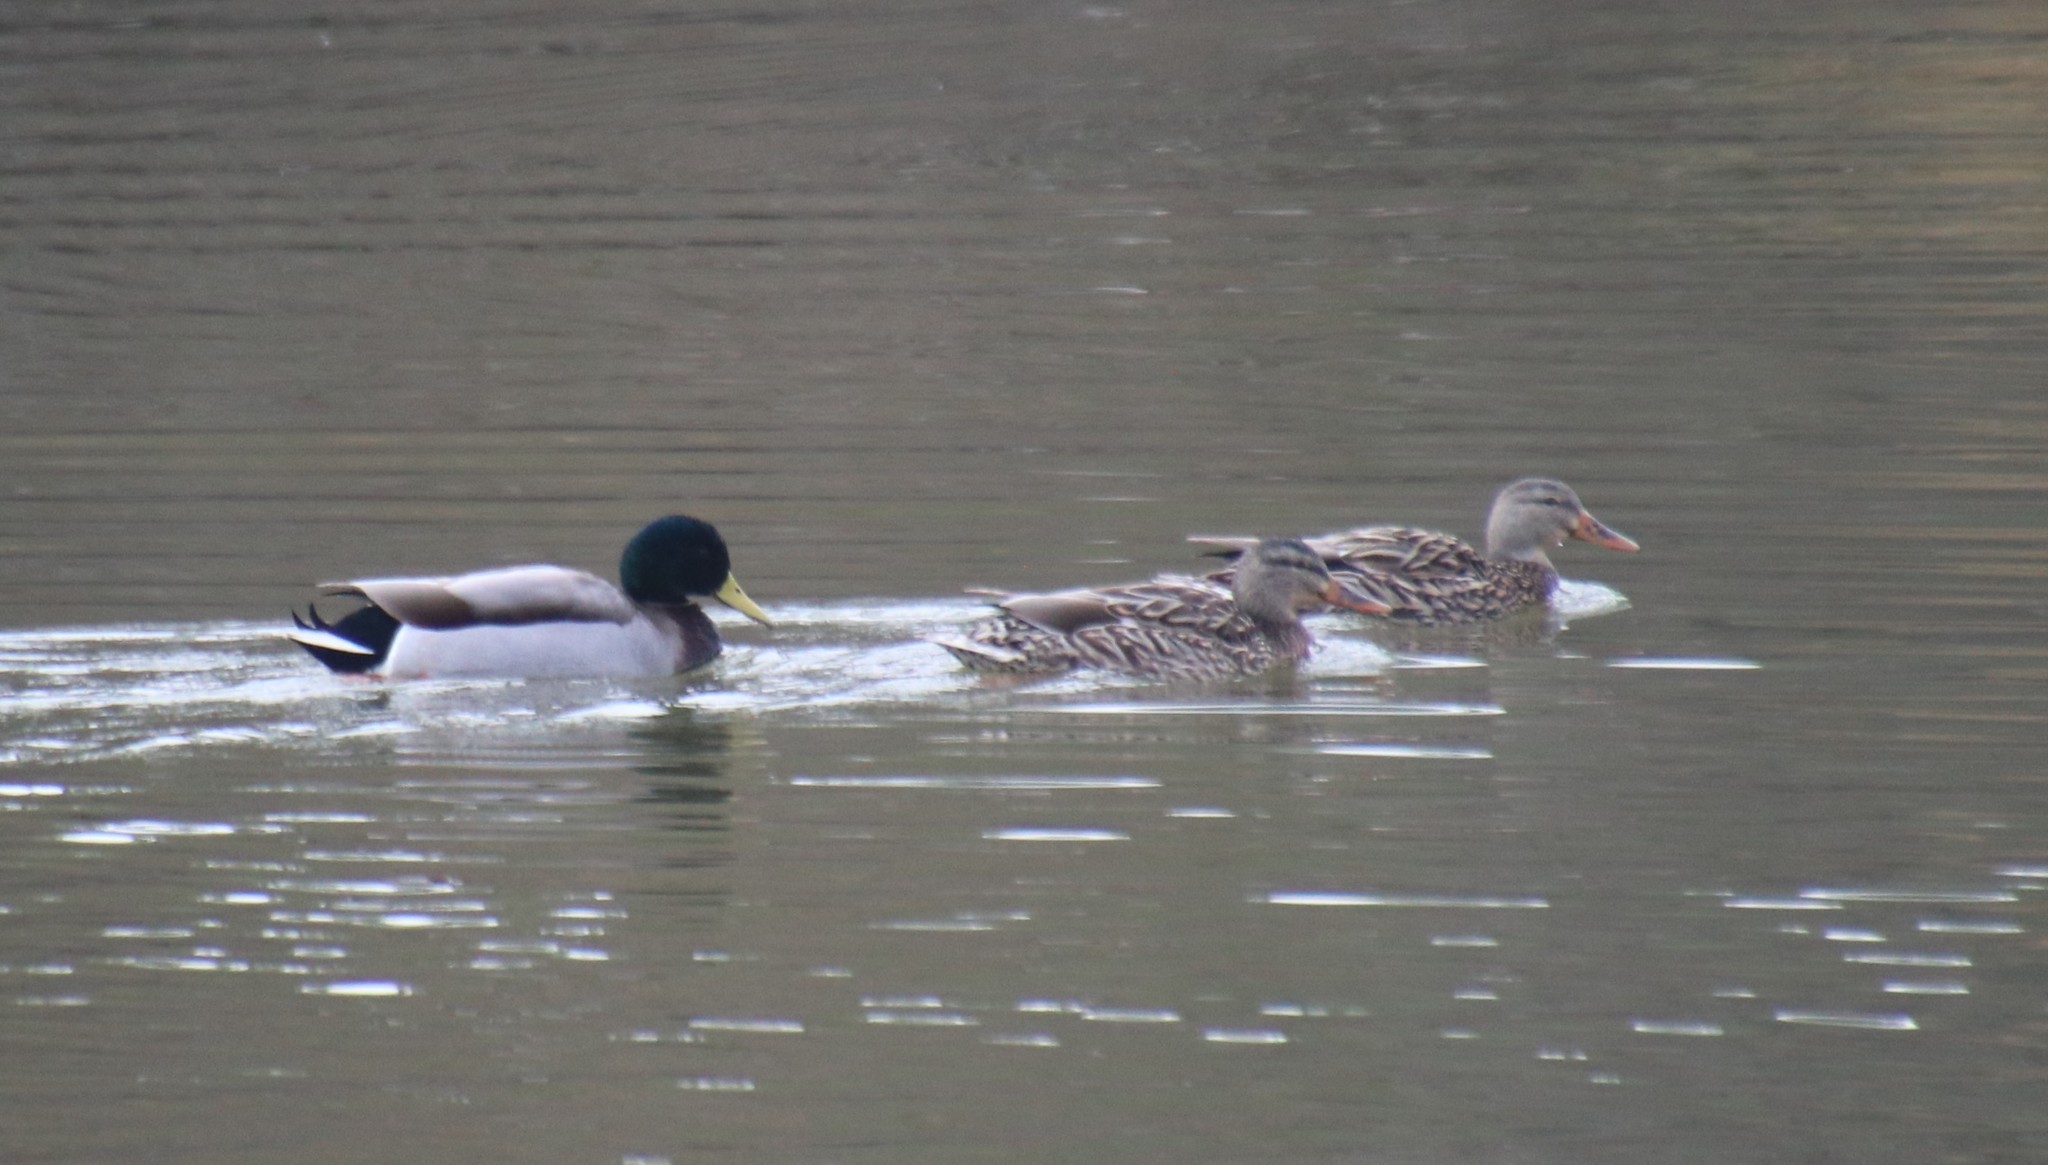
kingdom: Animalia
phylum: Chordata
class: Aves
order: Anseriformes
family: Anatidae
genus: Anas
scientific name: Anas platyrhynchos
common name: Mallard
